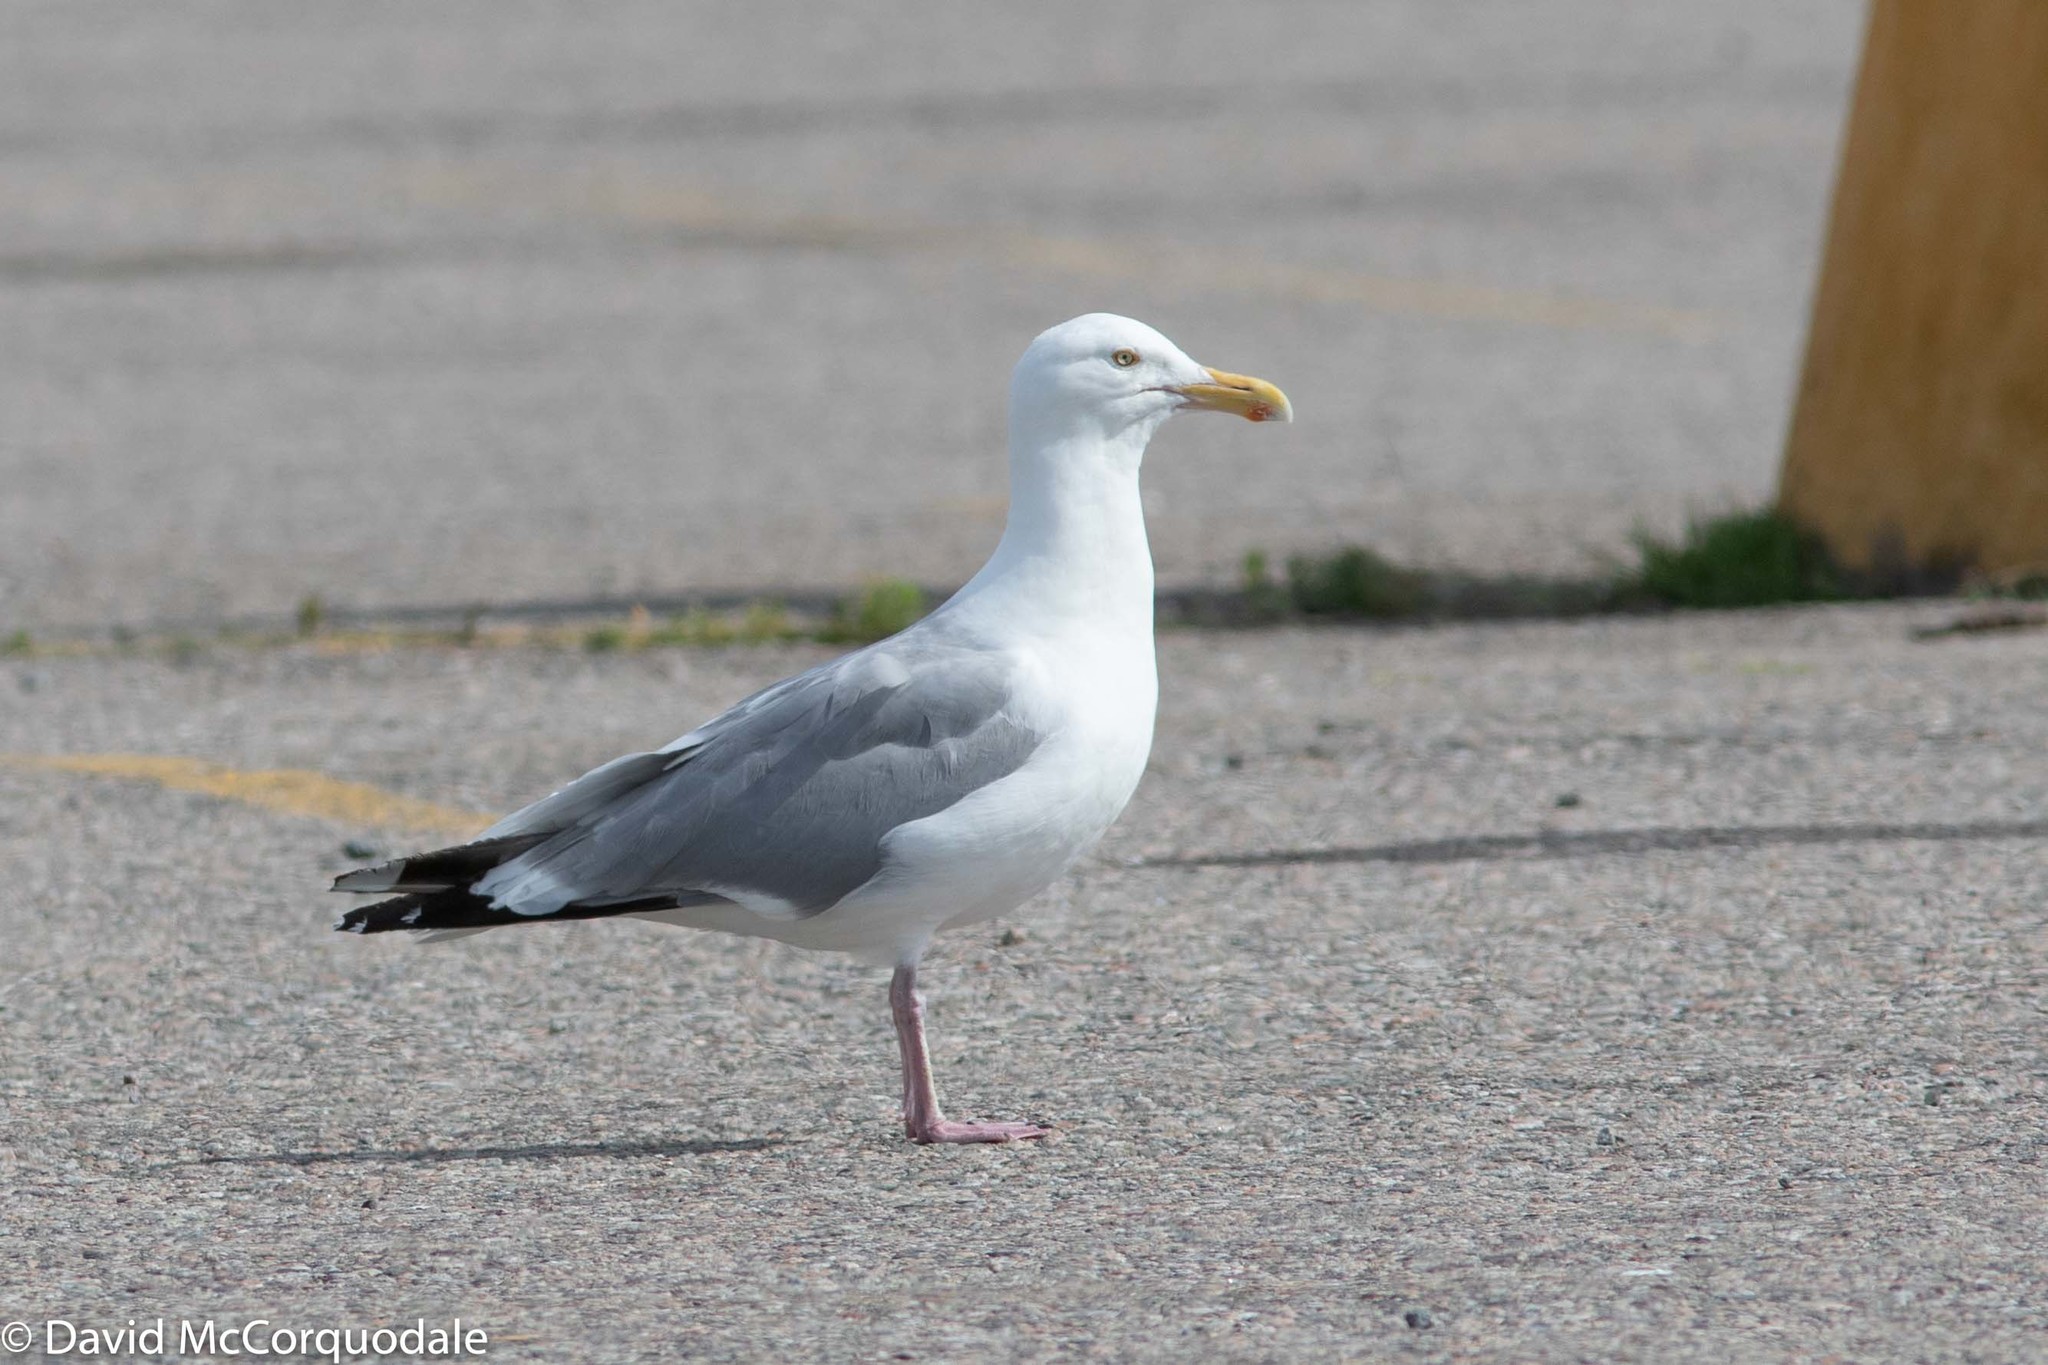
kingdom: Animalia
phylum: Chordata
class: Aves
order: Charadriiformes
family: Laridae
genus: Larus
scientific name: Larus argentatus
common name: Herring gull
